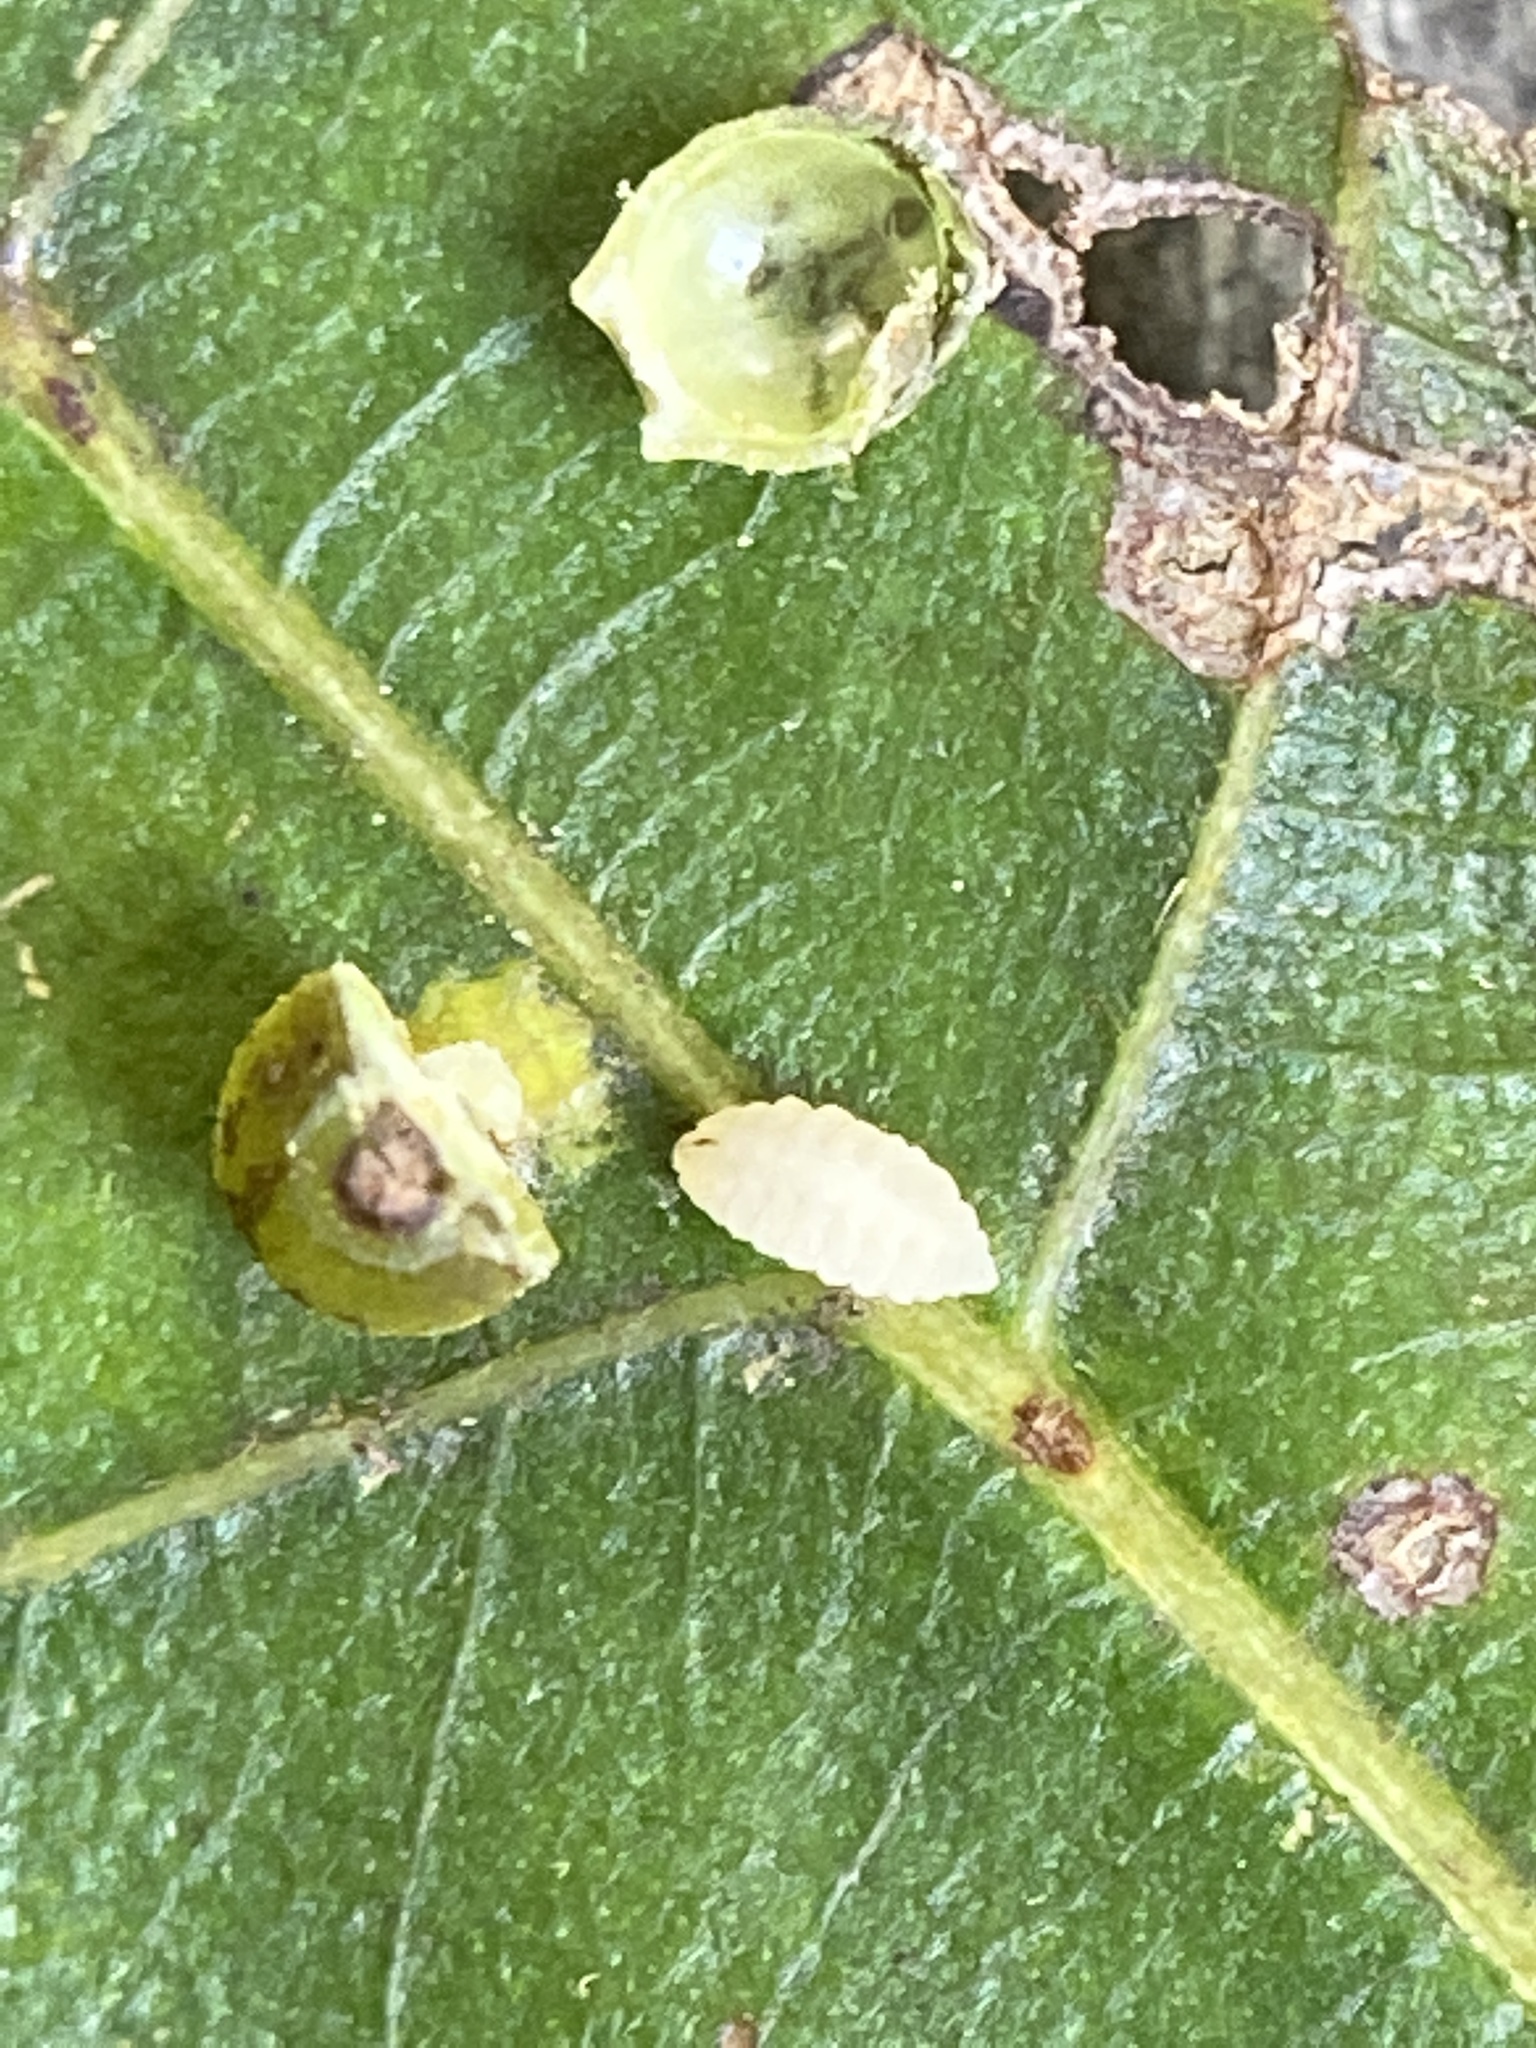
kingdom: Animalia
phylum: Arthropoda
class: Insecta
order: Diptera
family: Cecidomyiidae
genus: Caryomyia
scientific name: Caryomyia viscidolium
